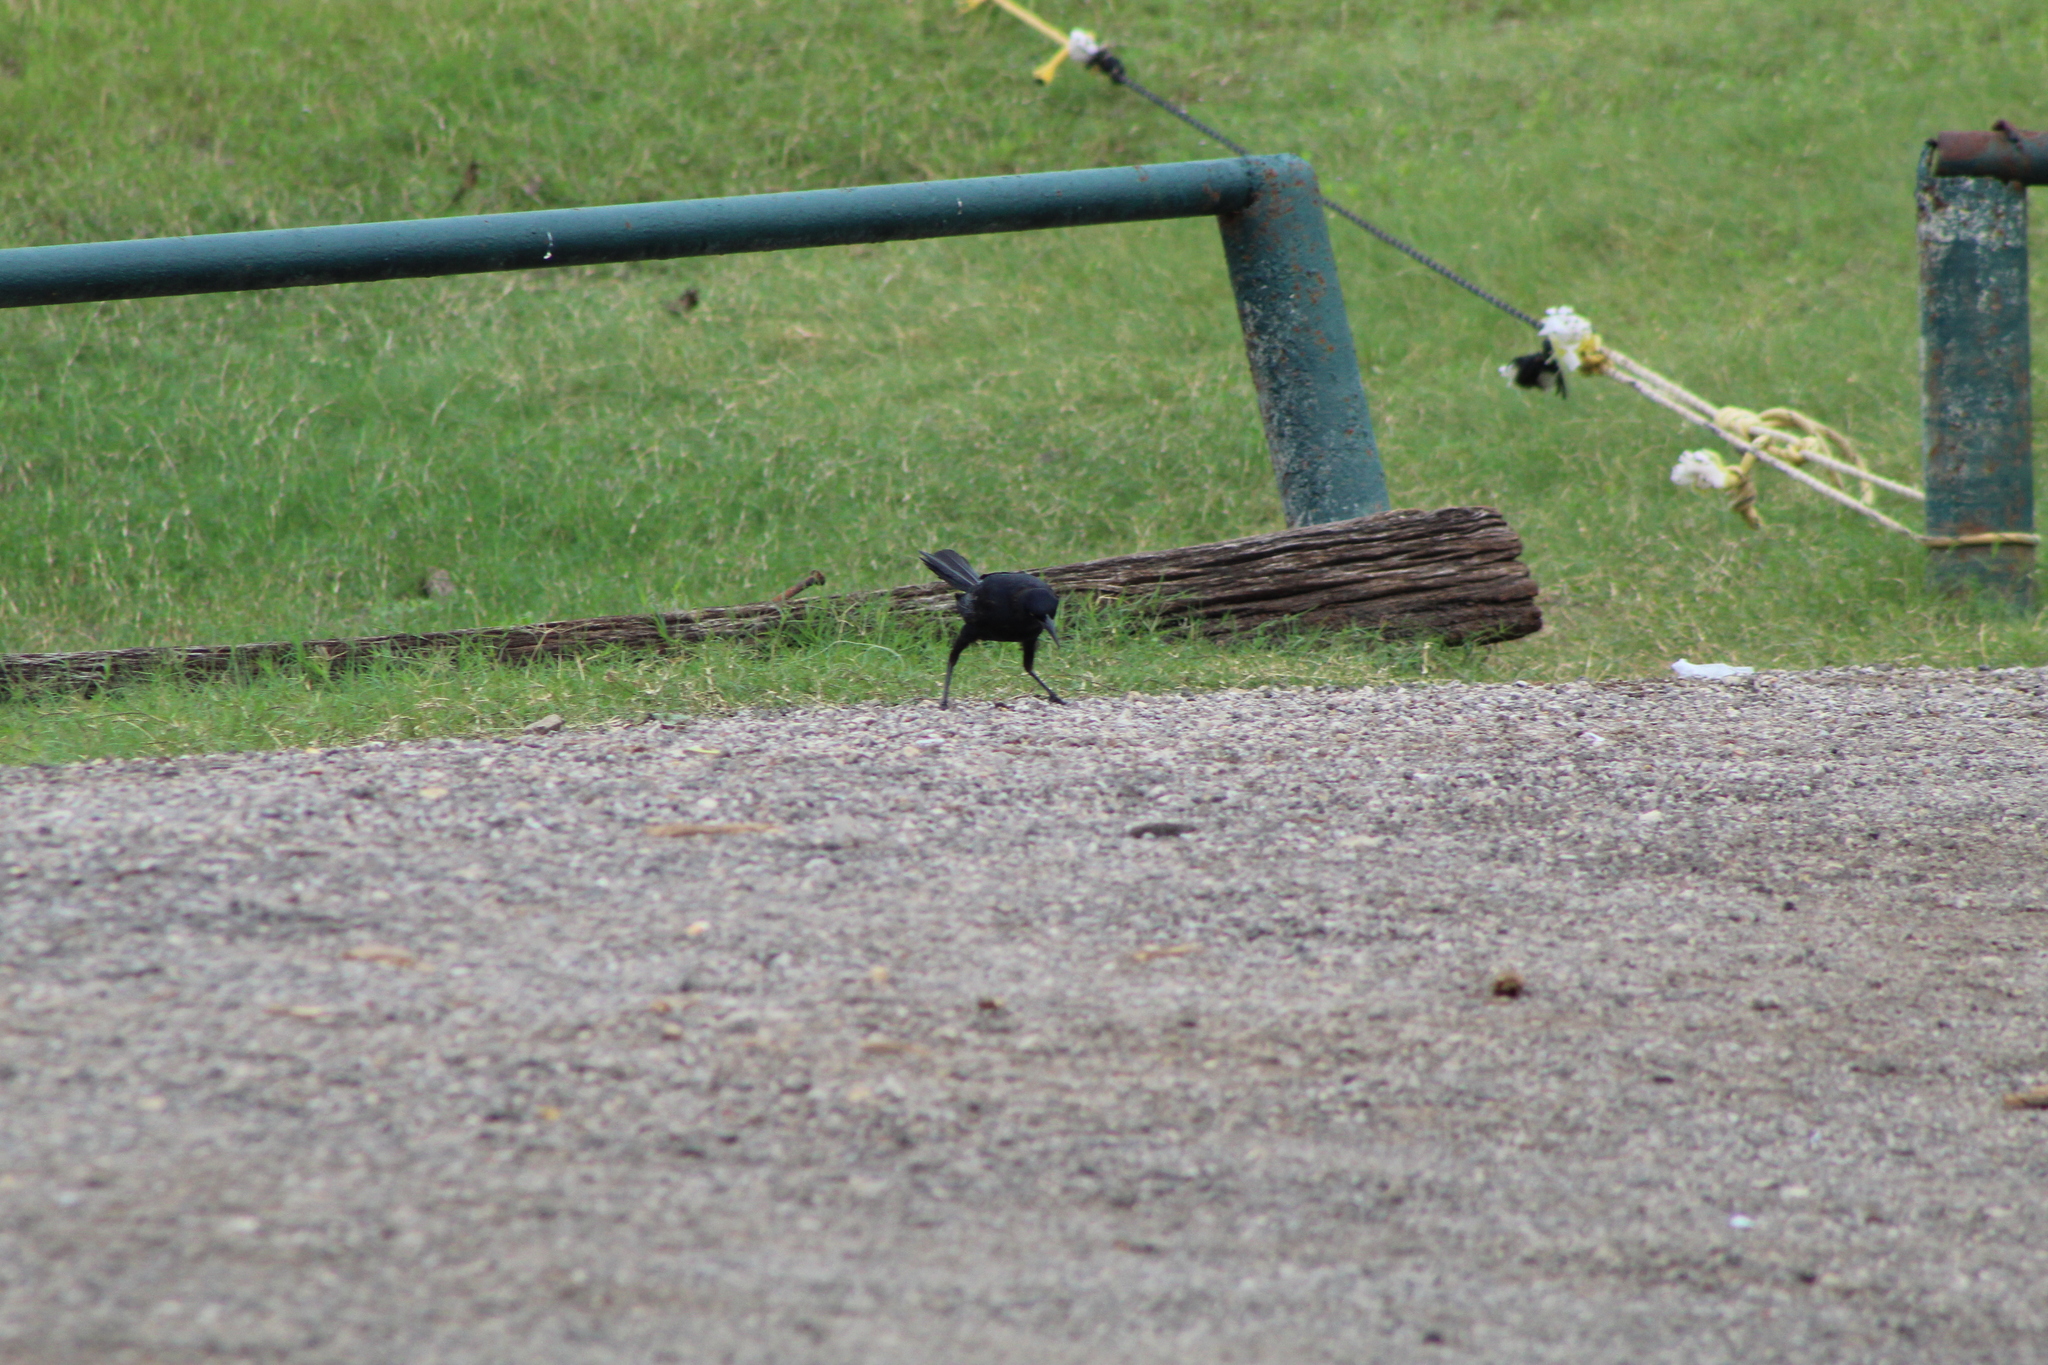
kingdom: Animalia
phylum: Chordata
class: Aves
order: Passeriformes
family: Icteridae
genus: Quiscalus
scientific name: Quiscalus mexicanus
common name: Great-tailed grackle
